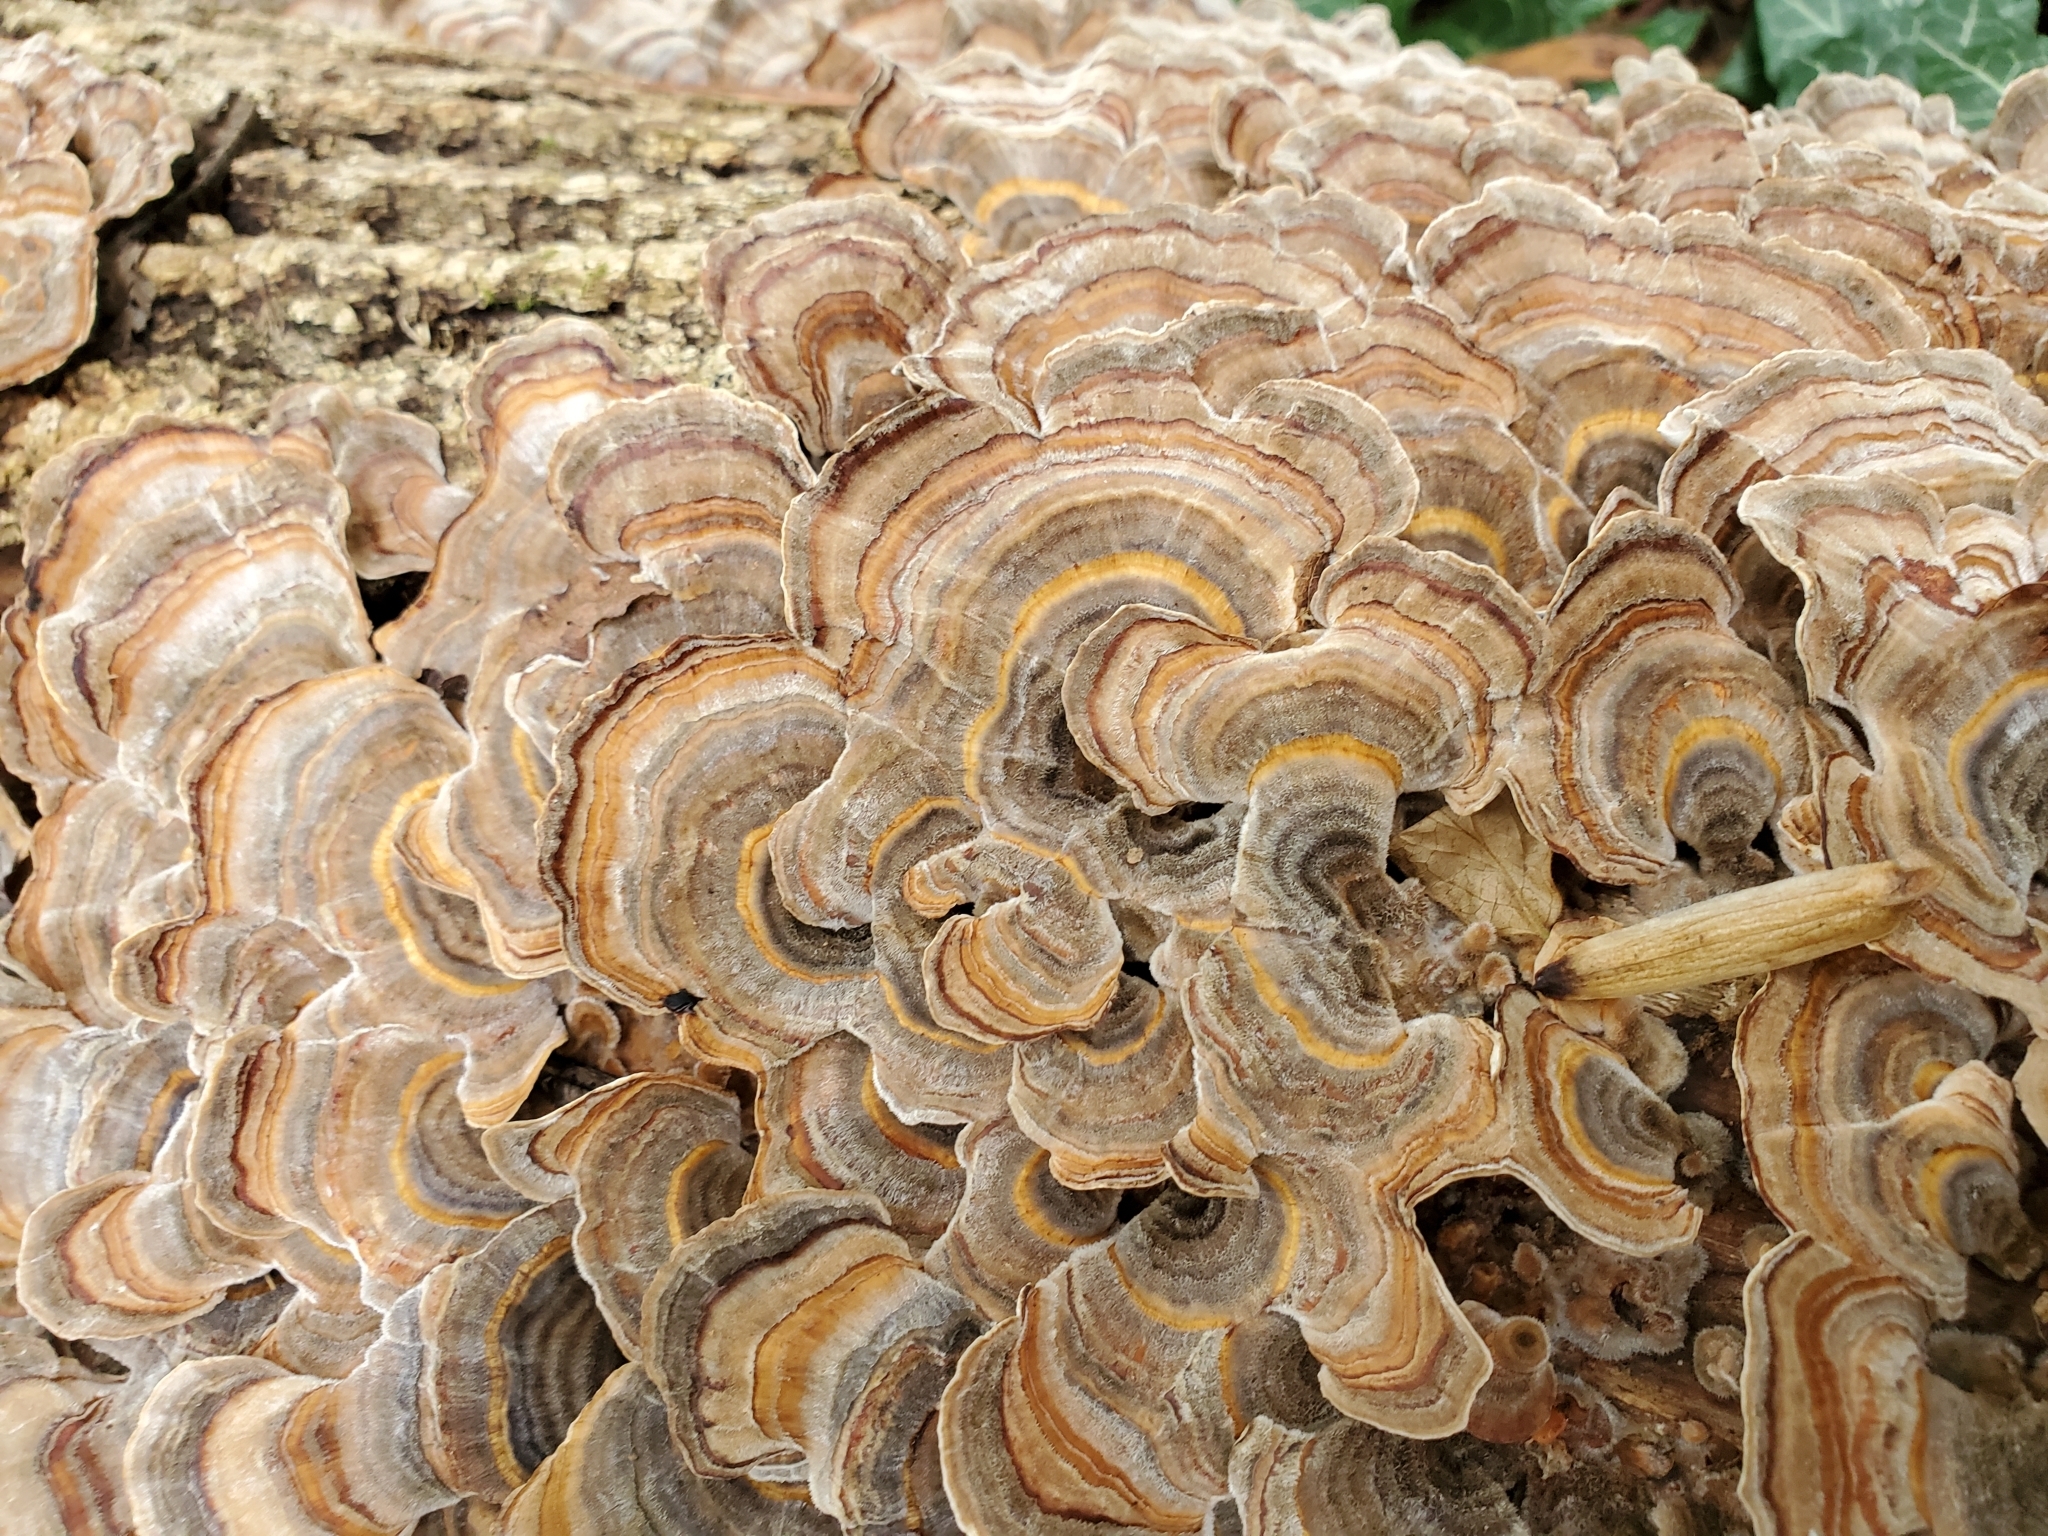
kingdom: Fungi
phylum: Basidiomycota
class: Agaricomycetes
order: Russulales
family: Stereaceae
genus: Stereum
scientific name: Stereum hirsutum
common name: Hairy curtain crust
